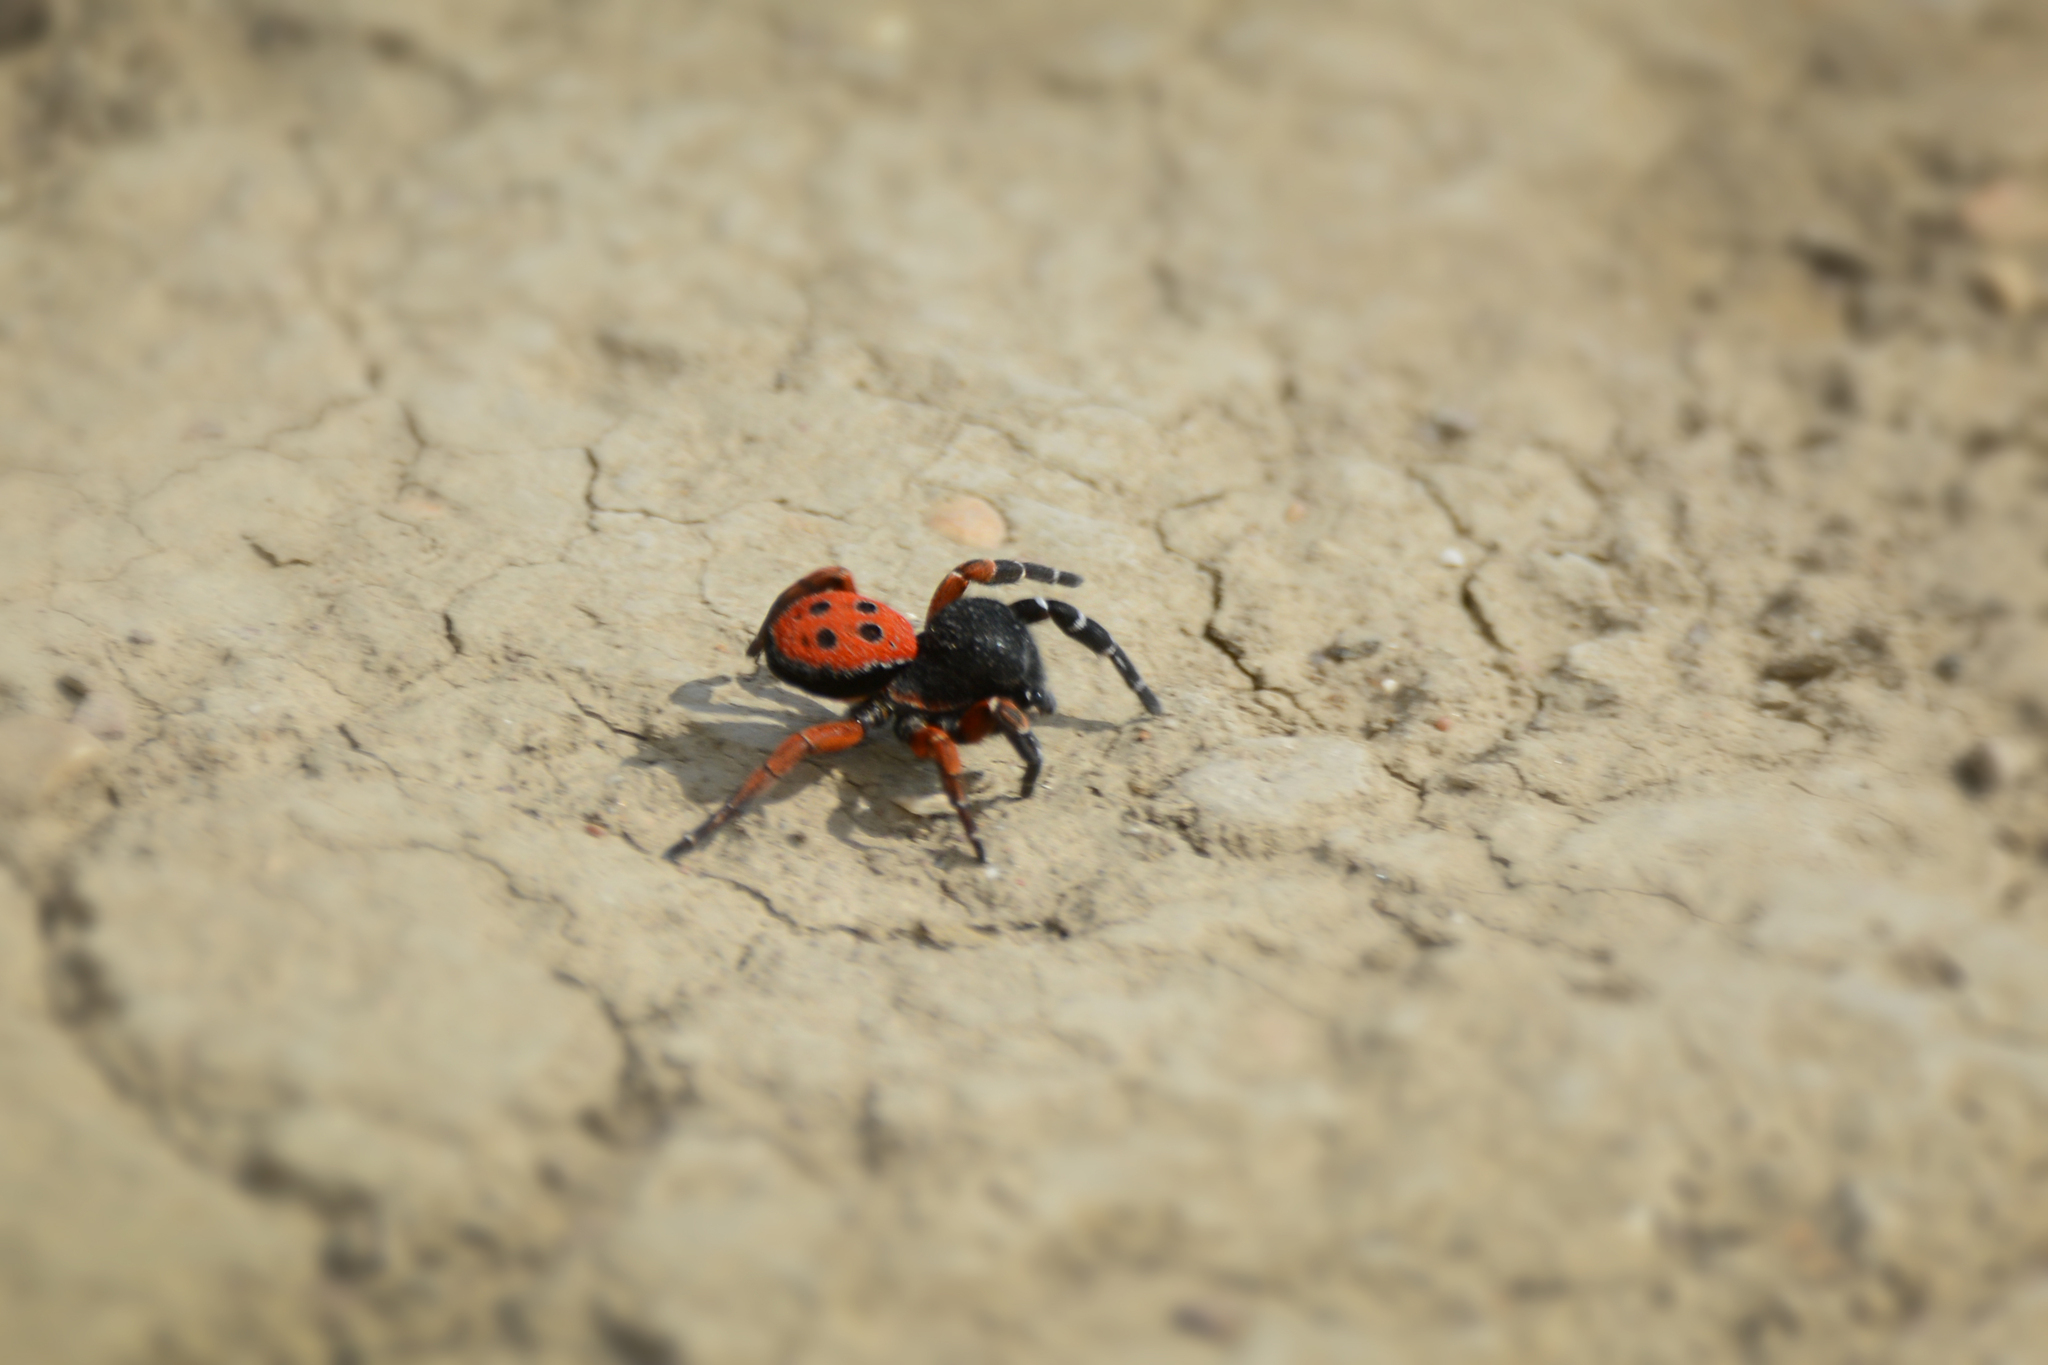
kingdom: Animalia
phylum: Arthropoda
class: Arachnida
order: Araneae
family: Eresidae
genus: Eresus
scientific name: Eresus kollari
